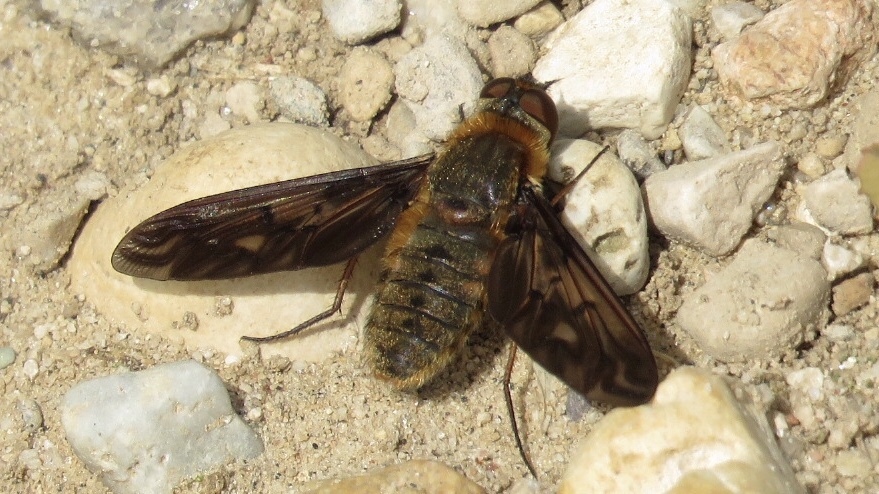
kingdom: Animalia
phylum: Arthropoda
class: Insecta
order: Diptera
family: Bombyliidae
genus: Poecilanthrax
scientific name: Poecilanthrax alcyon
